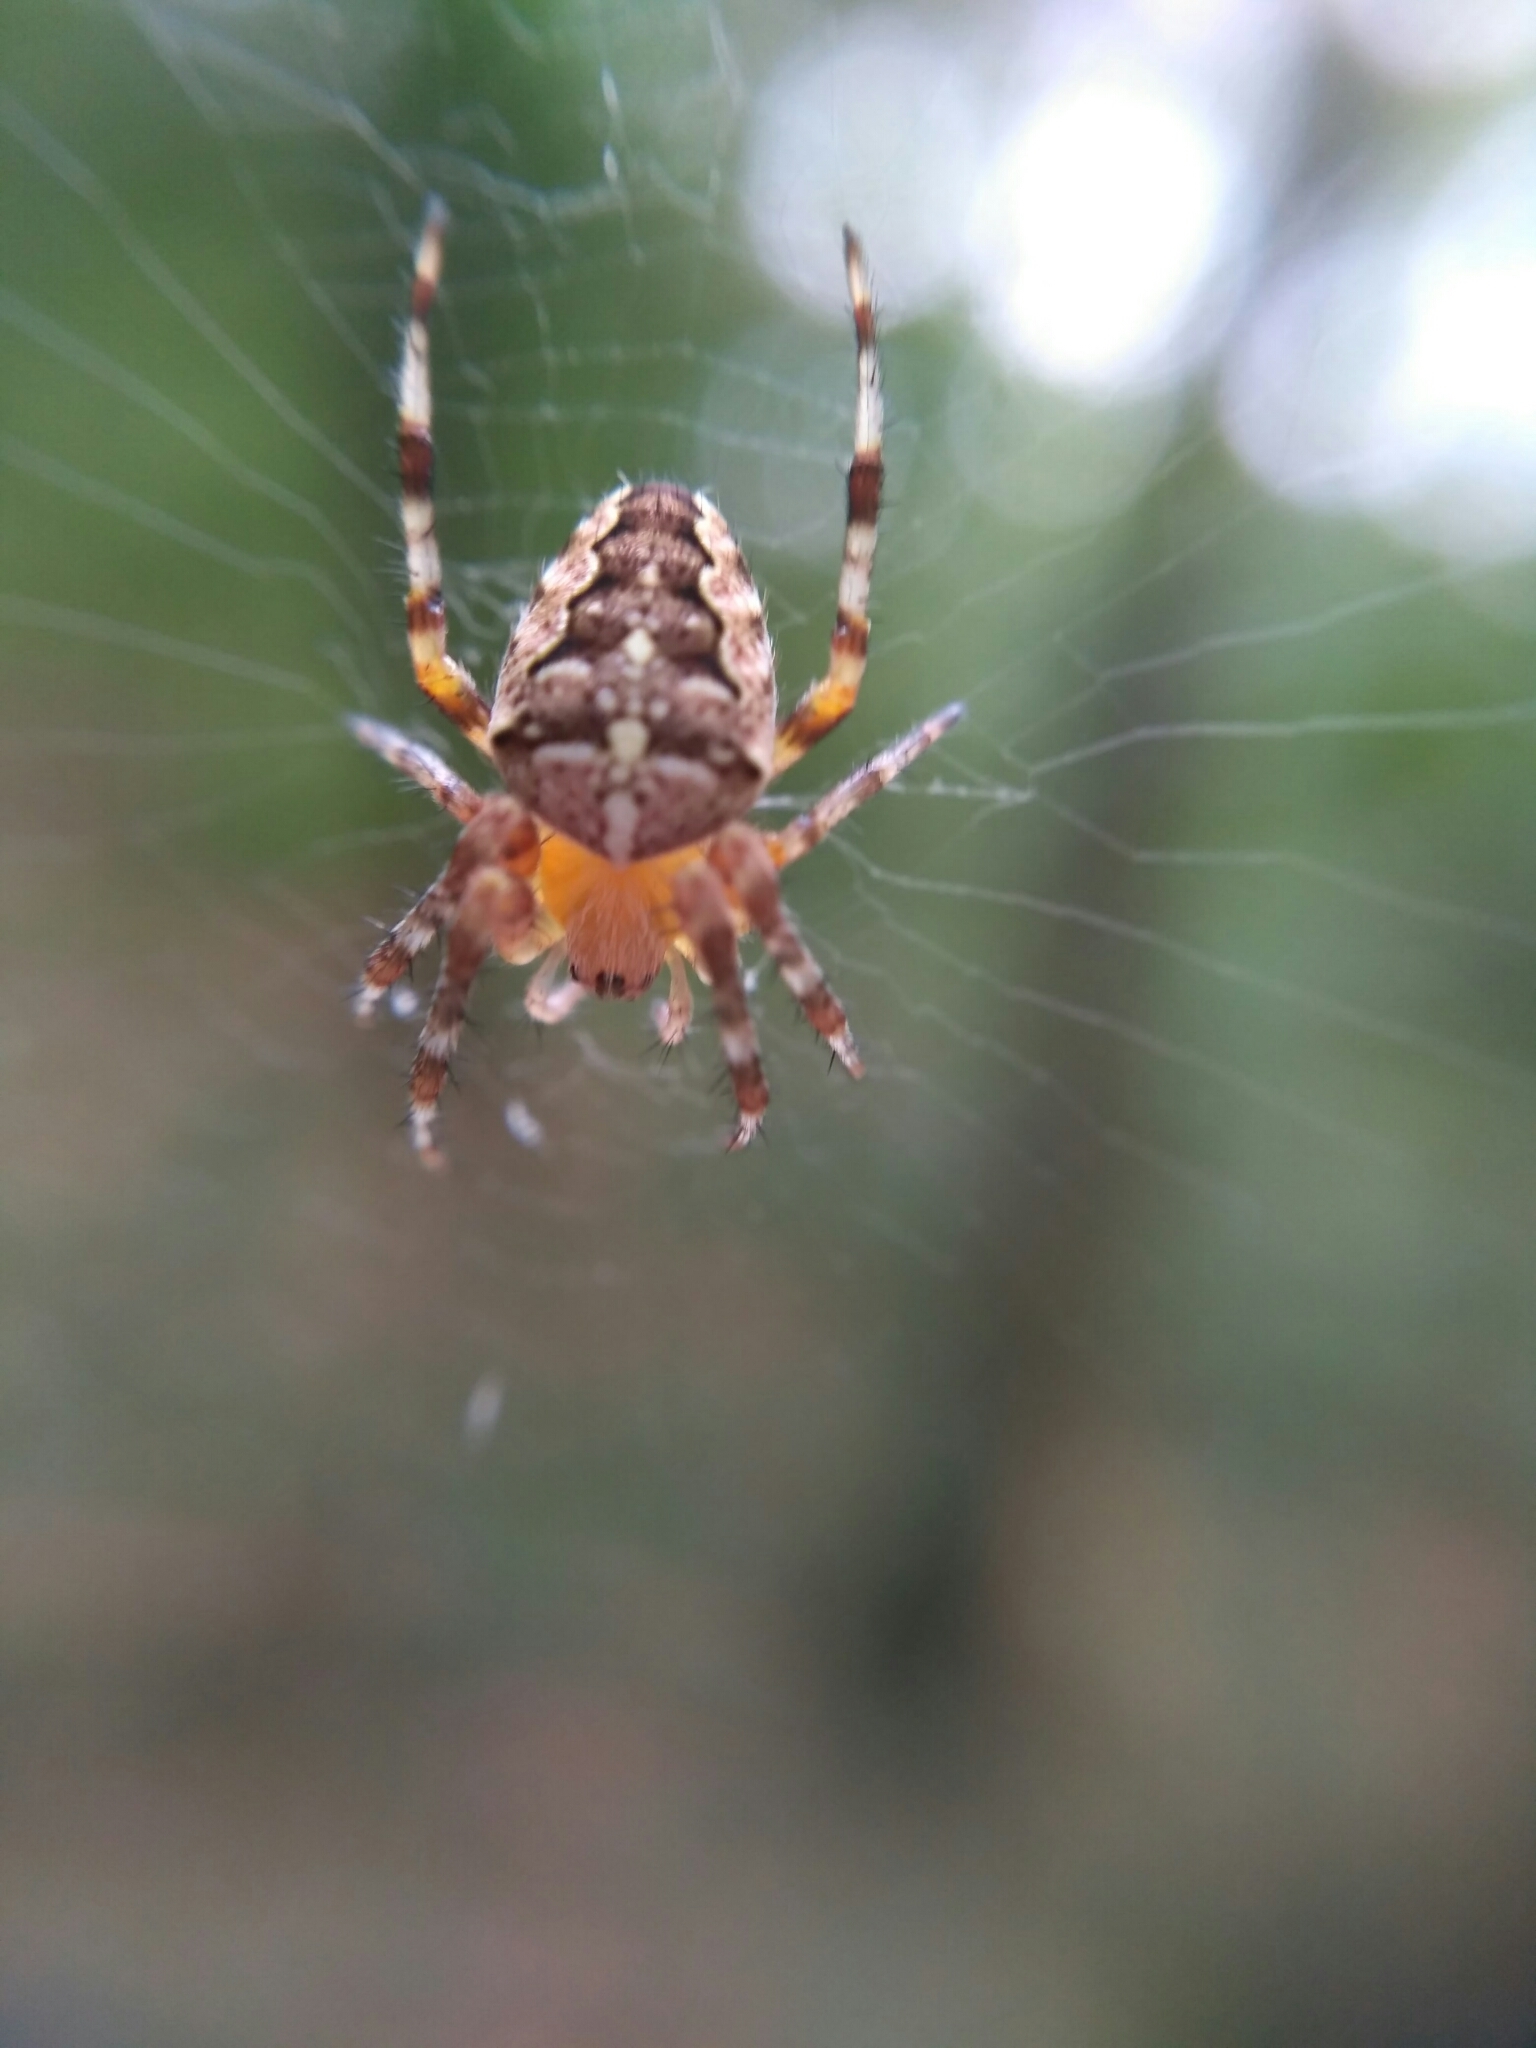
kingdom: Animalia
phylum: Arthropoda
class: Arachnida
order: Araneae
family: Araneidae
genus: Araneus
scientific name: Araneus diadematus
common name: Cross orbweaver
